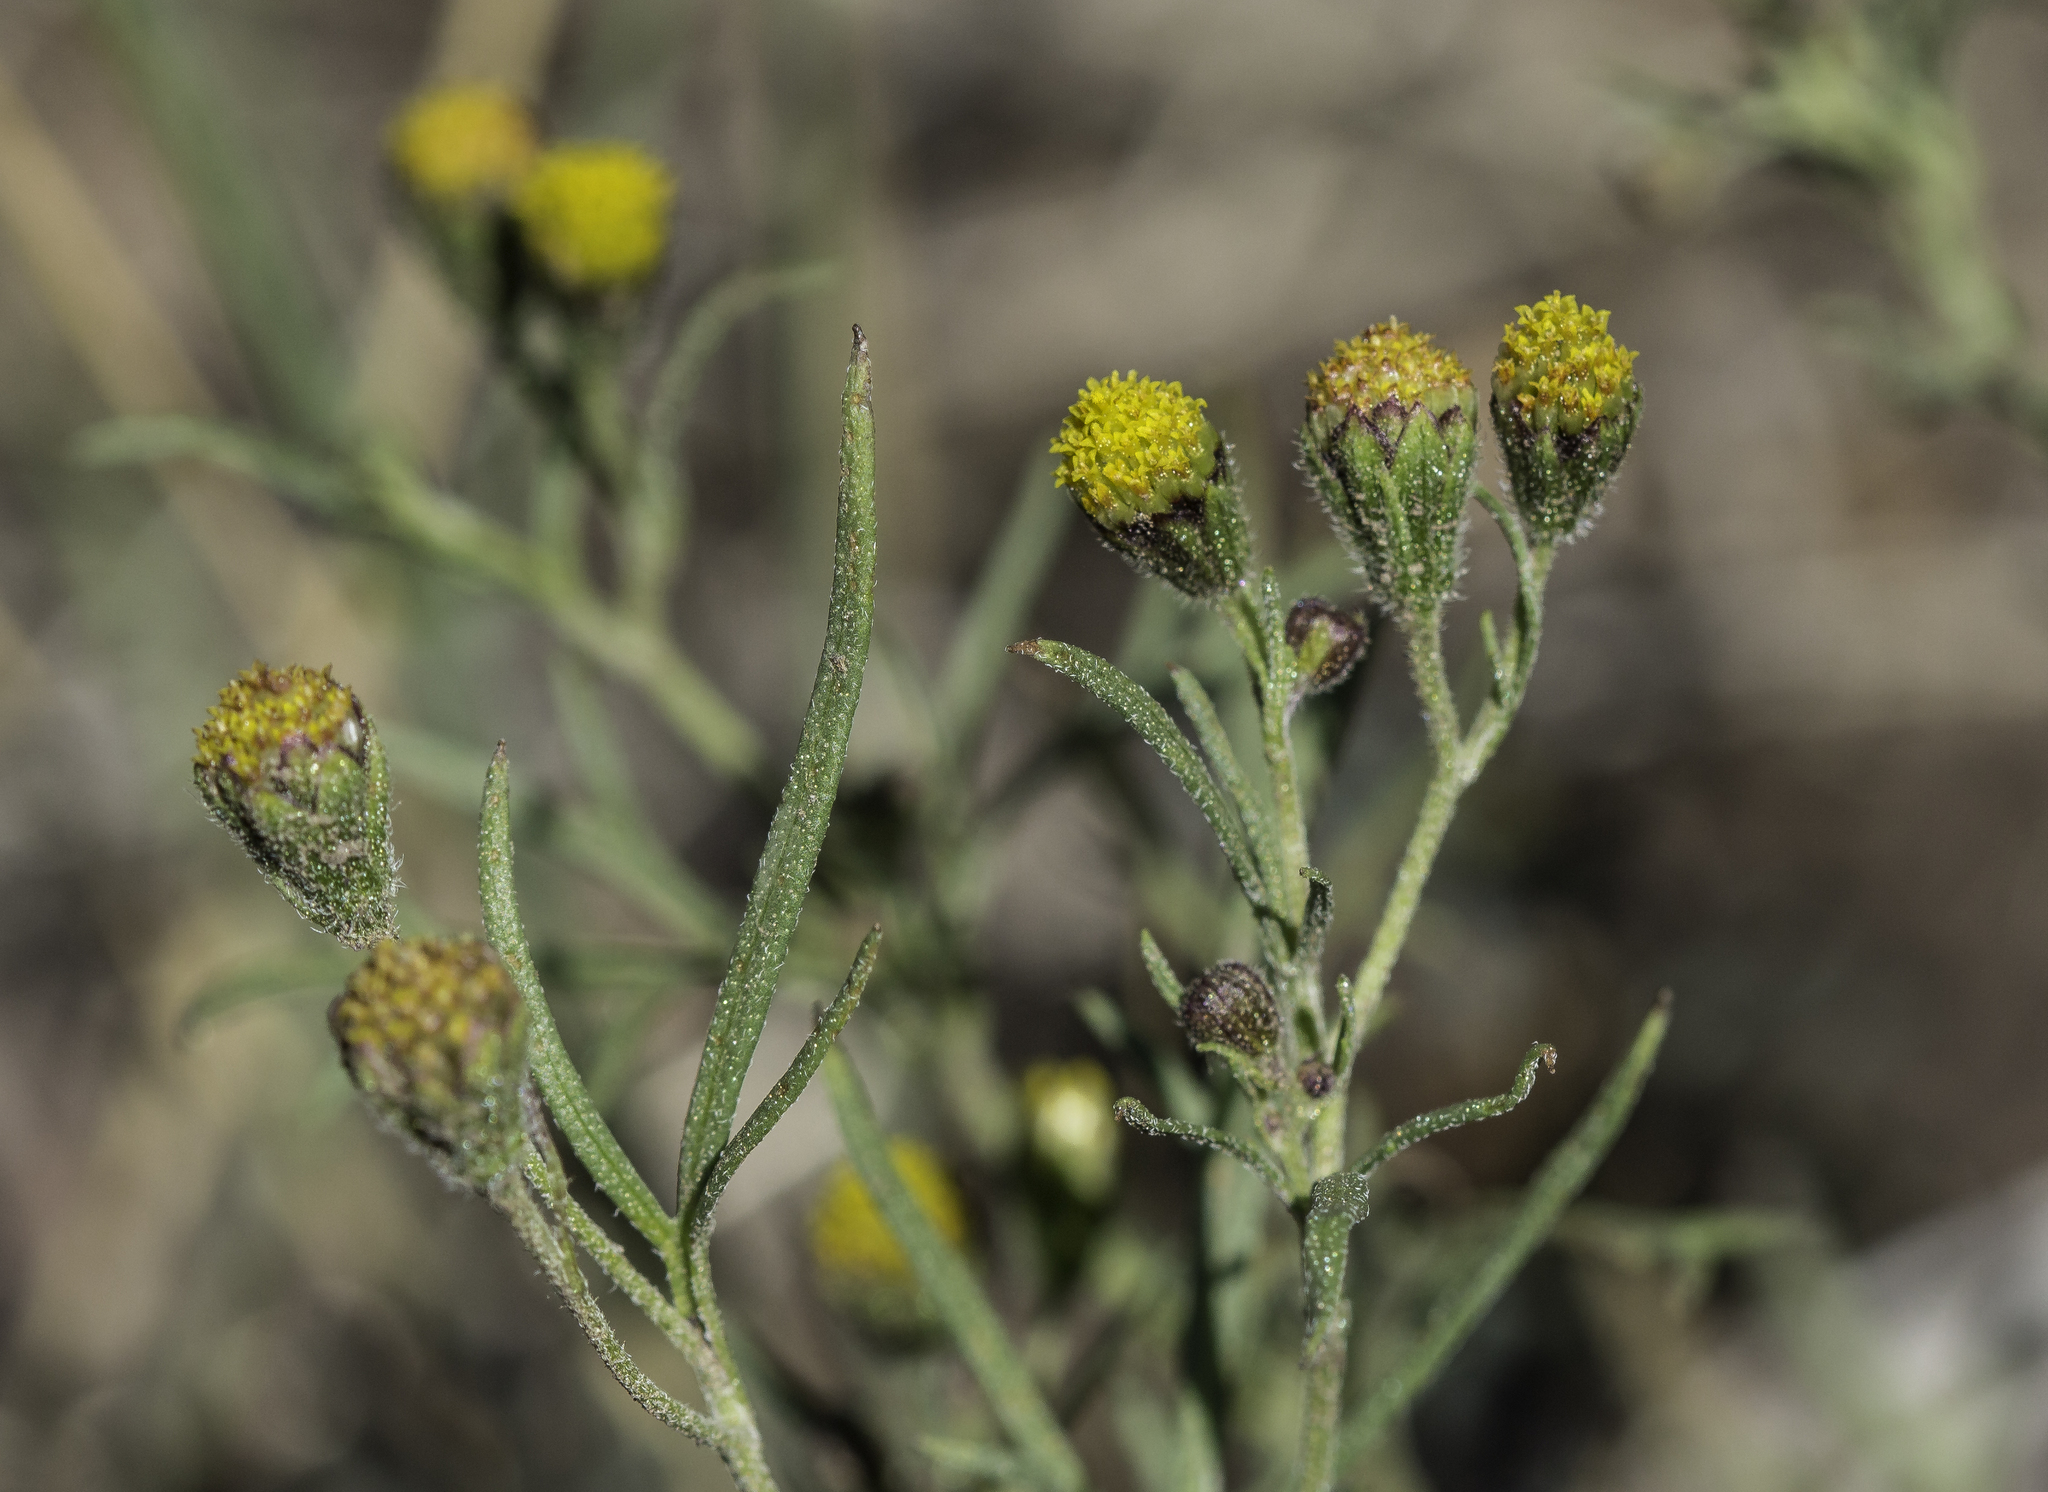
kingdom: Plantae
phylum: Tracheophyta
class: Magnoliopsida
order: Asterales
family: Asteraceae
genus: Picradeniopsis
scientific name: Picradeniopsis multiflora
